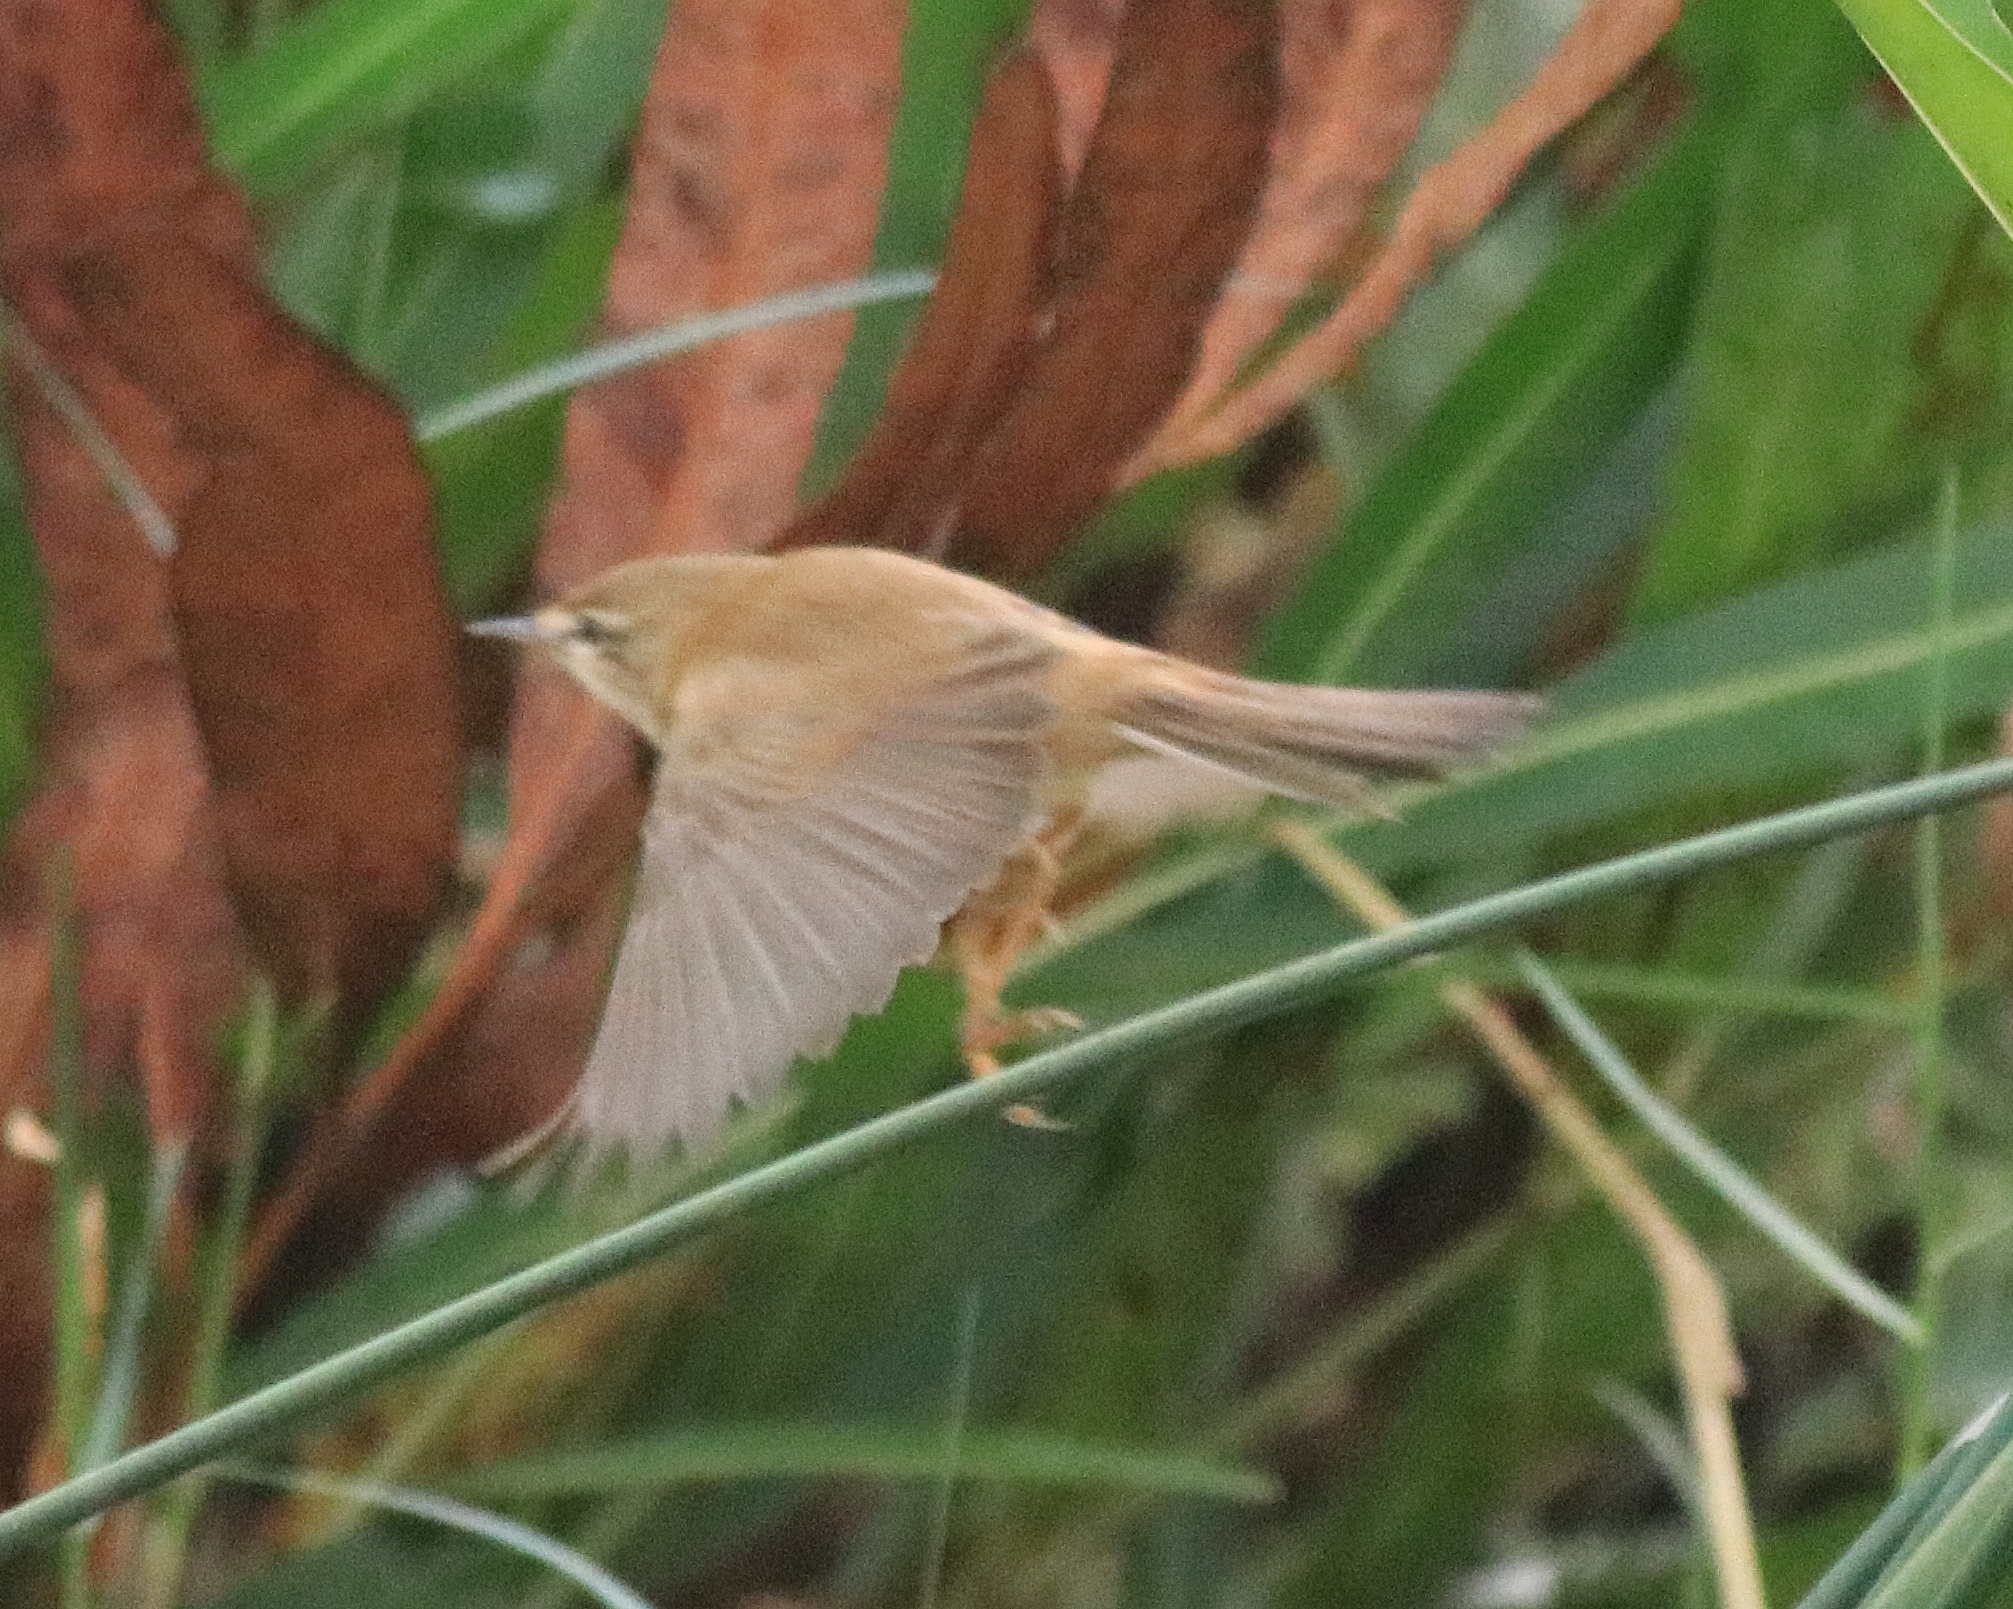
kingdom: Animalia
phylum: Chordata
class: Aves
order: Passeriformes
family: Acrocephalidae
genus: Acrocephalus
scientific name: Acrocephalus agricola
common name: Paddyfield warbler
